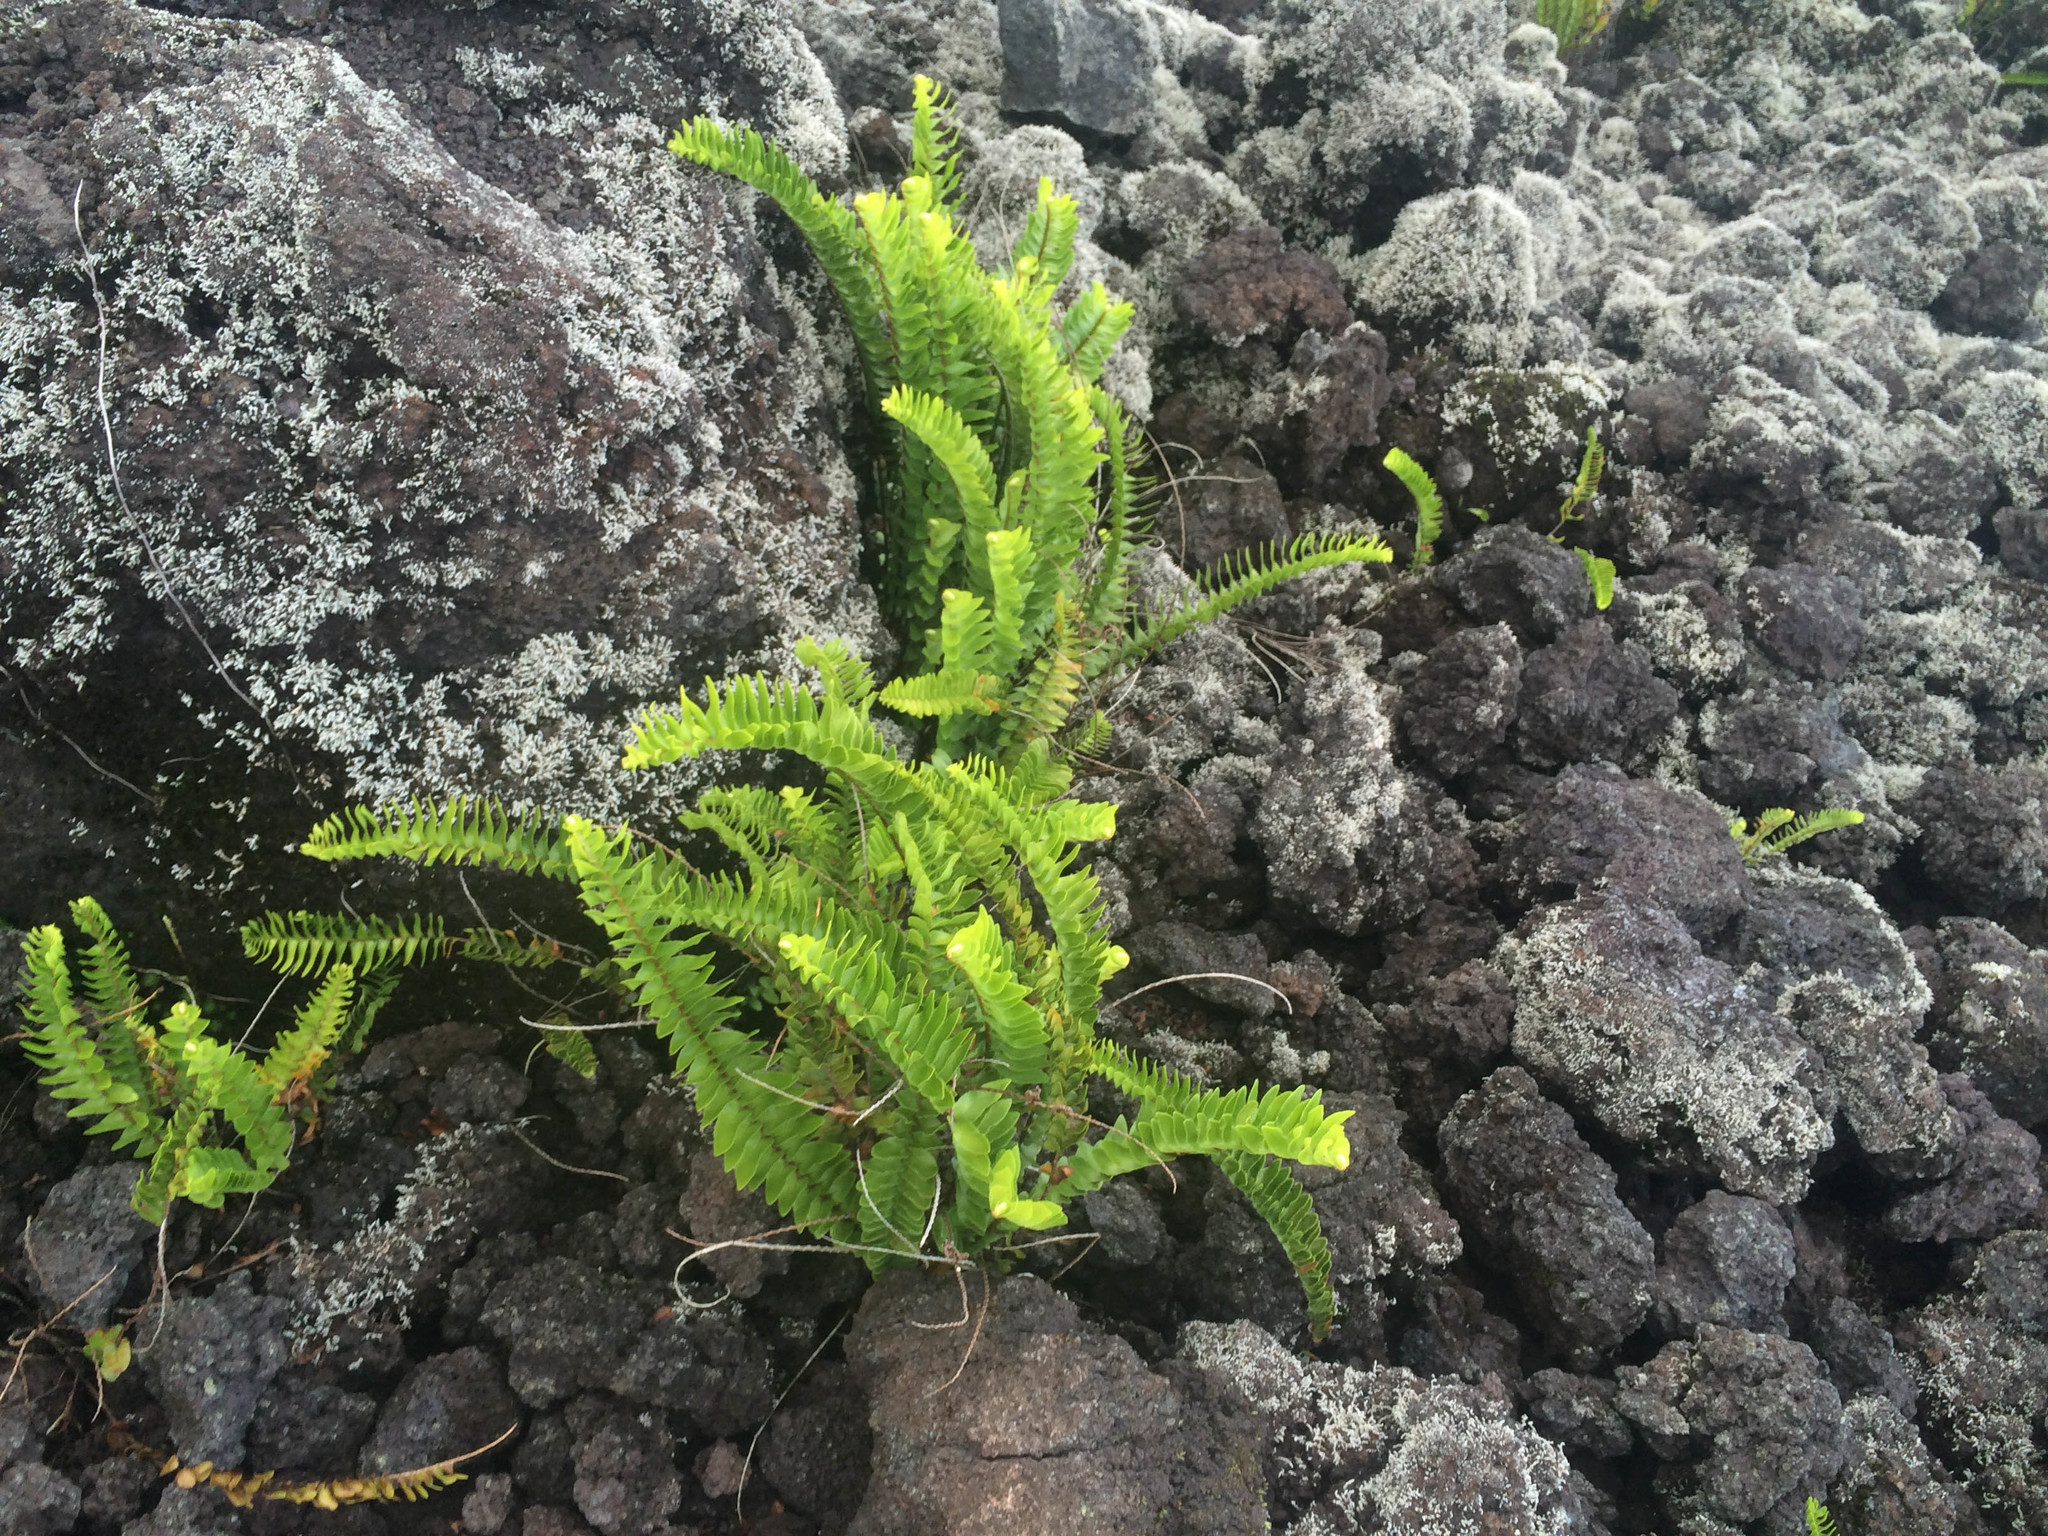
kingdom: Plantae
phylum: Tracheophyta
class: Polypodiopsida
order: Polypodiales
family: Nephrolepidaceae
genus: Nephrolepis
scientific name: Nephrolepis abrupta
